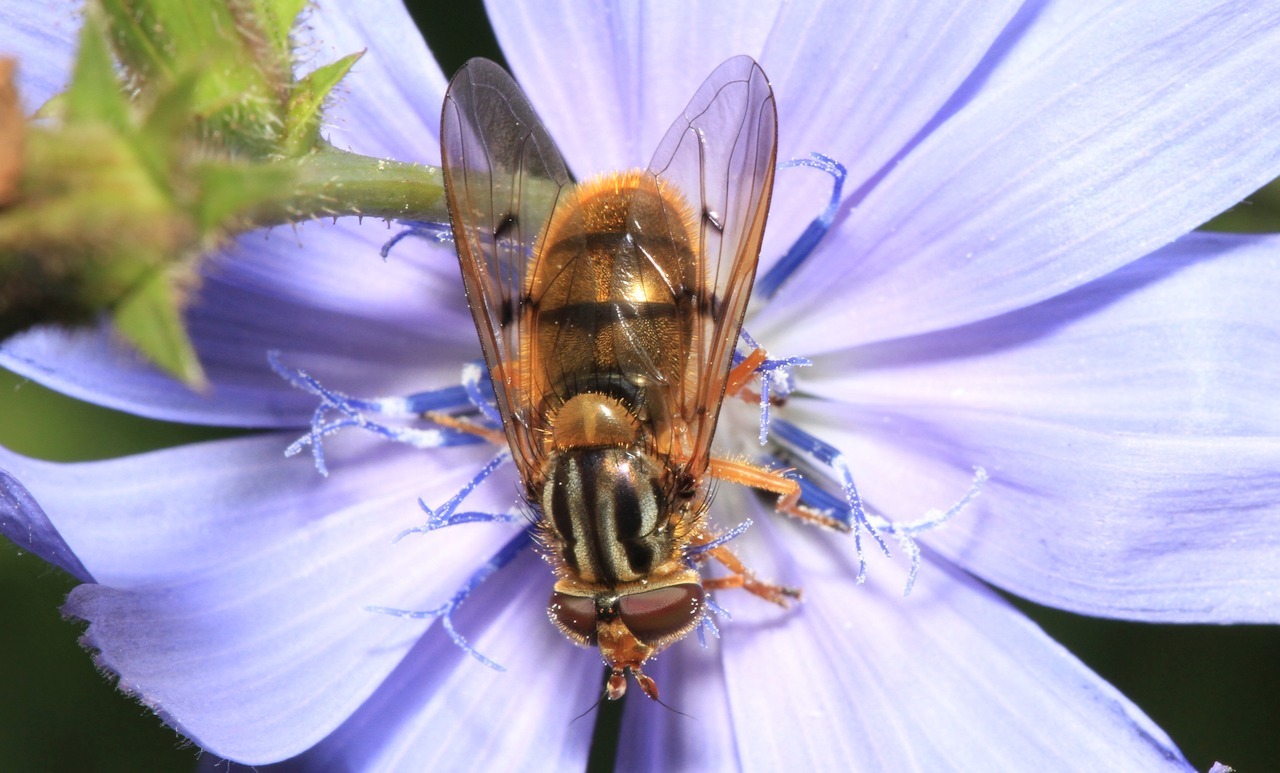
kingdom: Animalia
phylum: Arthropoda
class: Insecta
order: Diptera
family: Syrphidae
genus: Ferdinandea
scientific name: Ferdinandea cuprea
